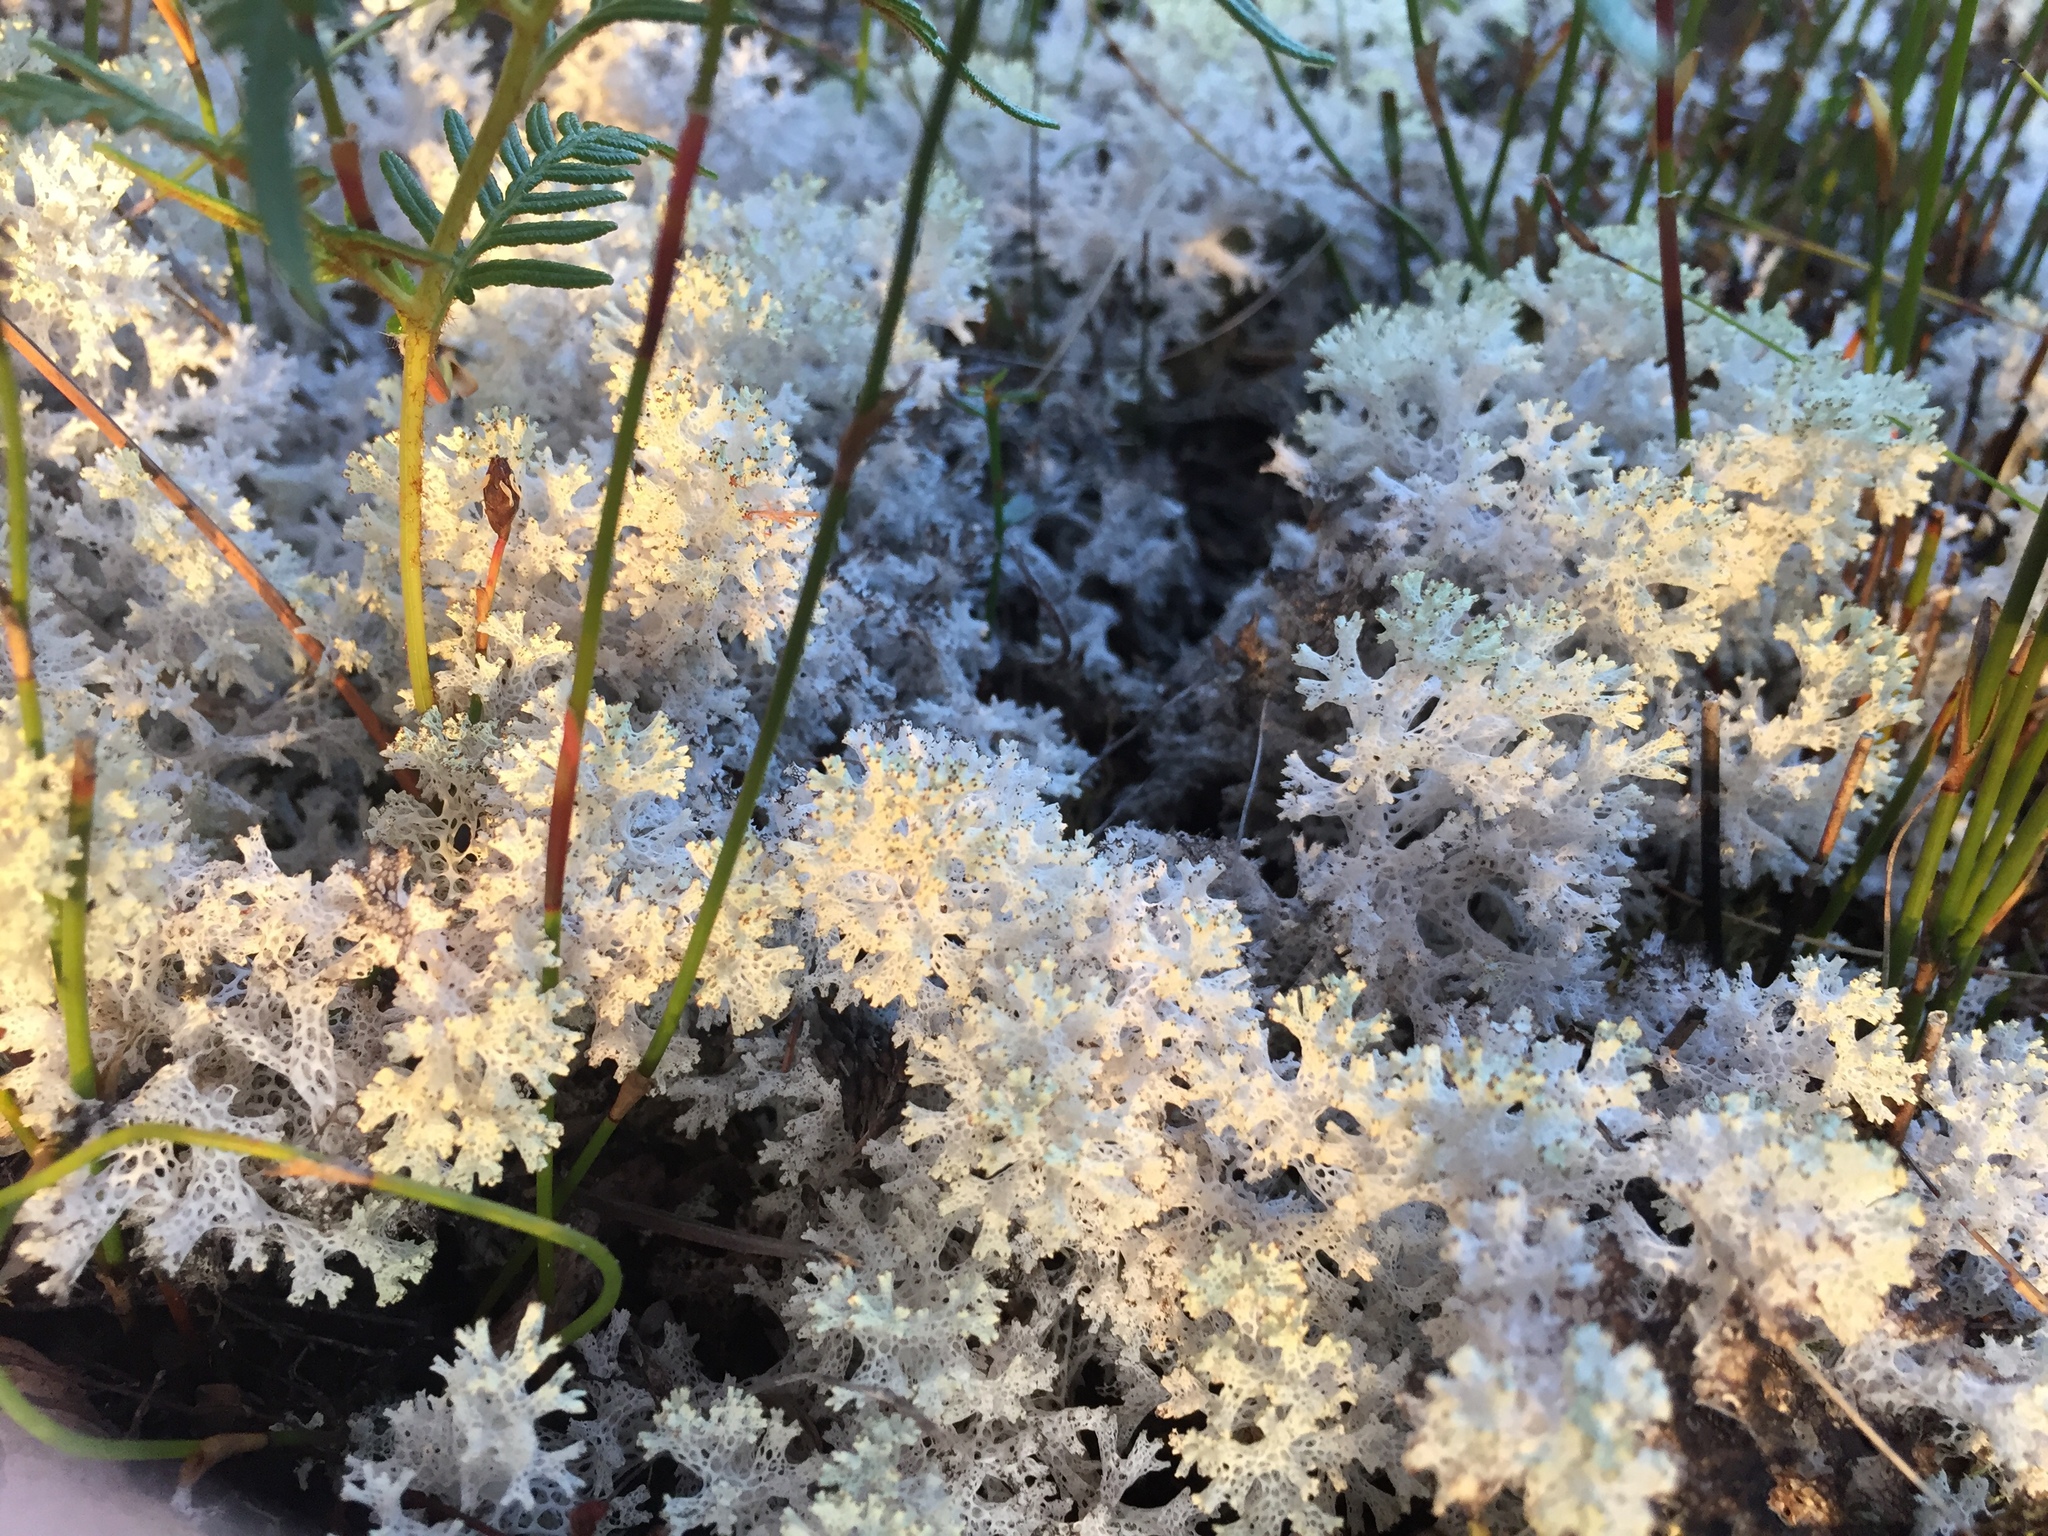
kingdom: Fungi
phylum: Ascomycota
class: Lecanoromycetes
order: Lecanorales
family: Cladoniaceae
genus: Pulchrocladia
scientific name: Pulchrocladia retipora
